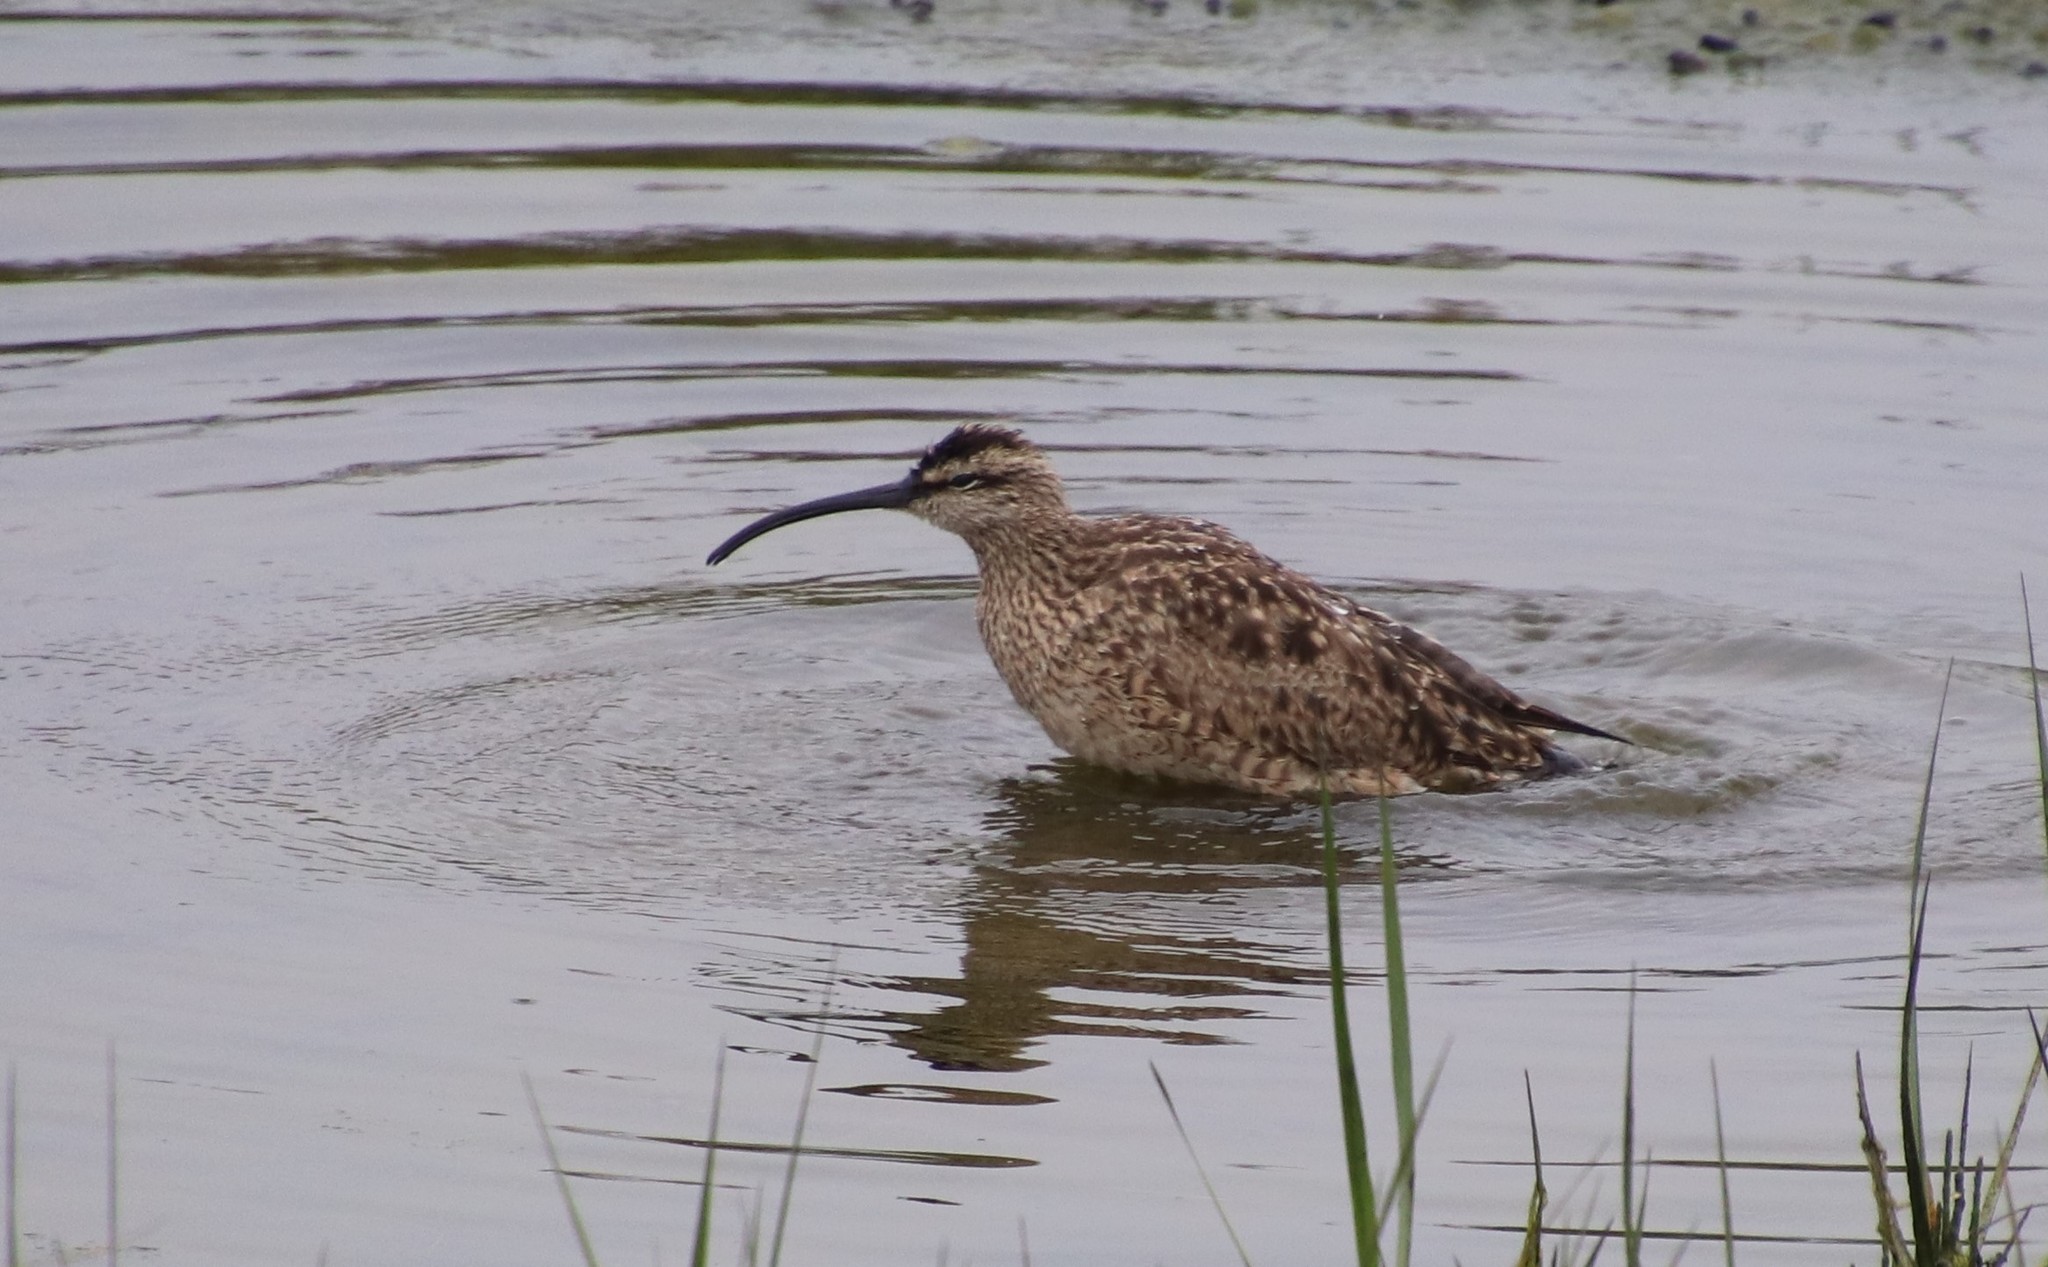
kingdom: Animalia
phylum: Chordata
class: Aves
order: Charadriiformes
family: Scolopacidae
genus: Numenius
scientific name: Numenius phaeopus
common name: Whimbrel
